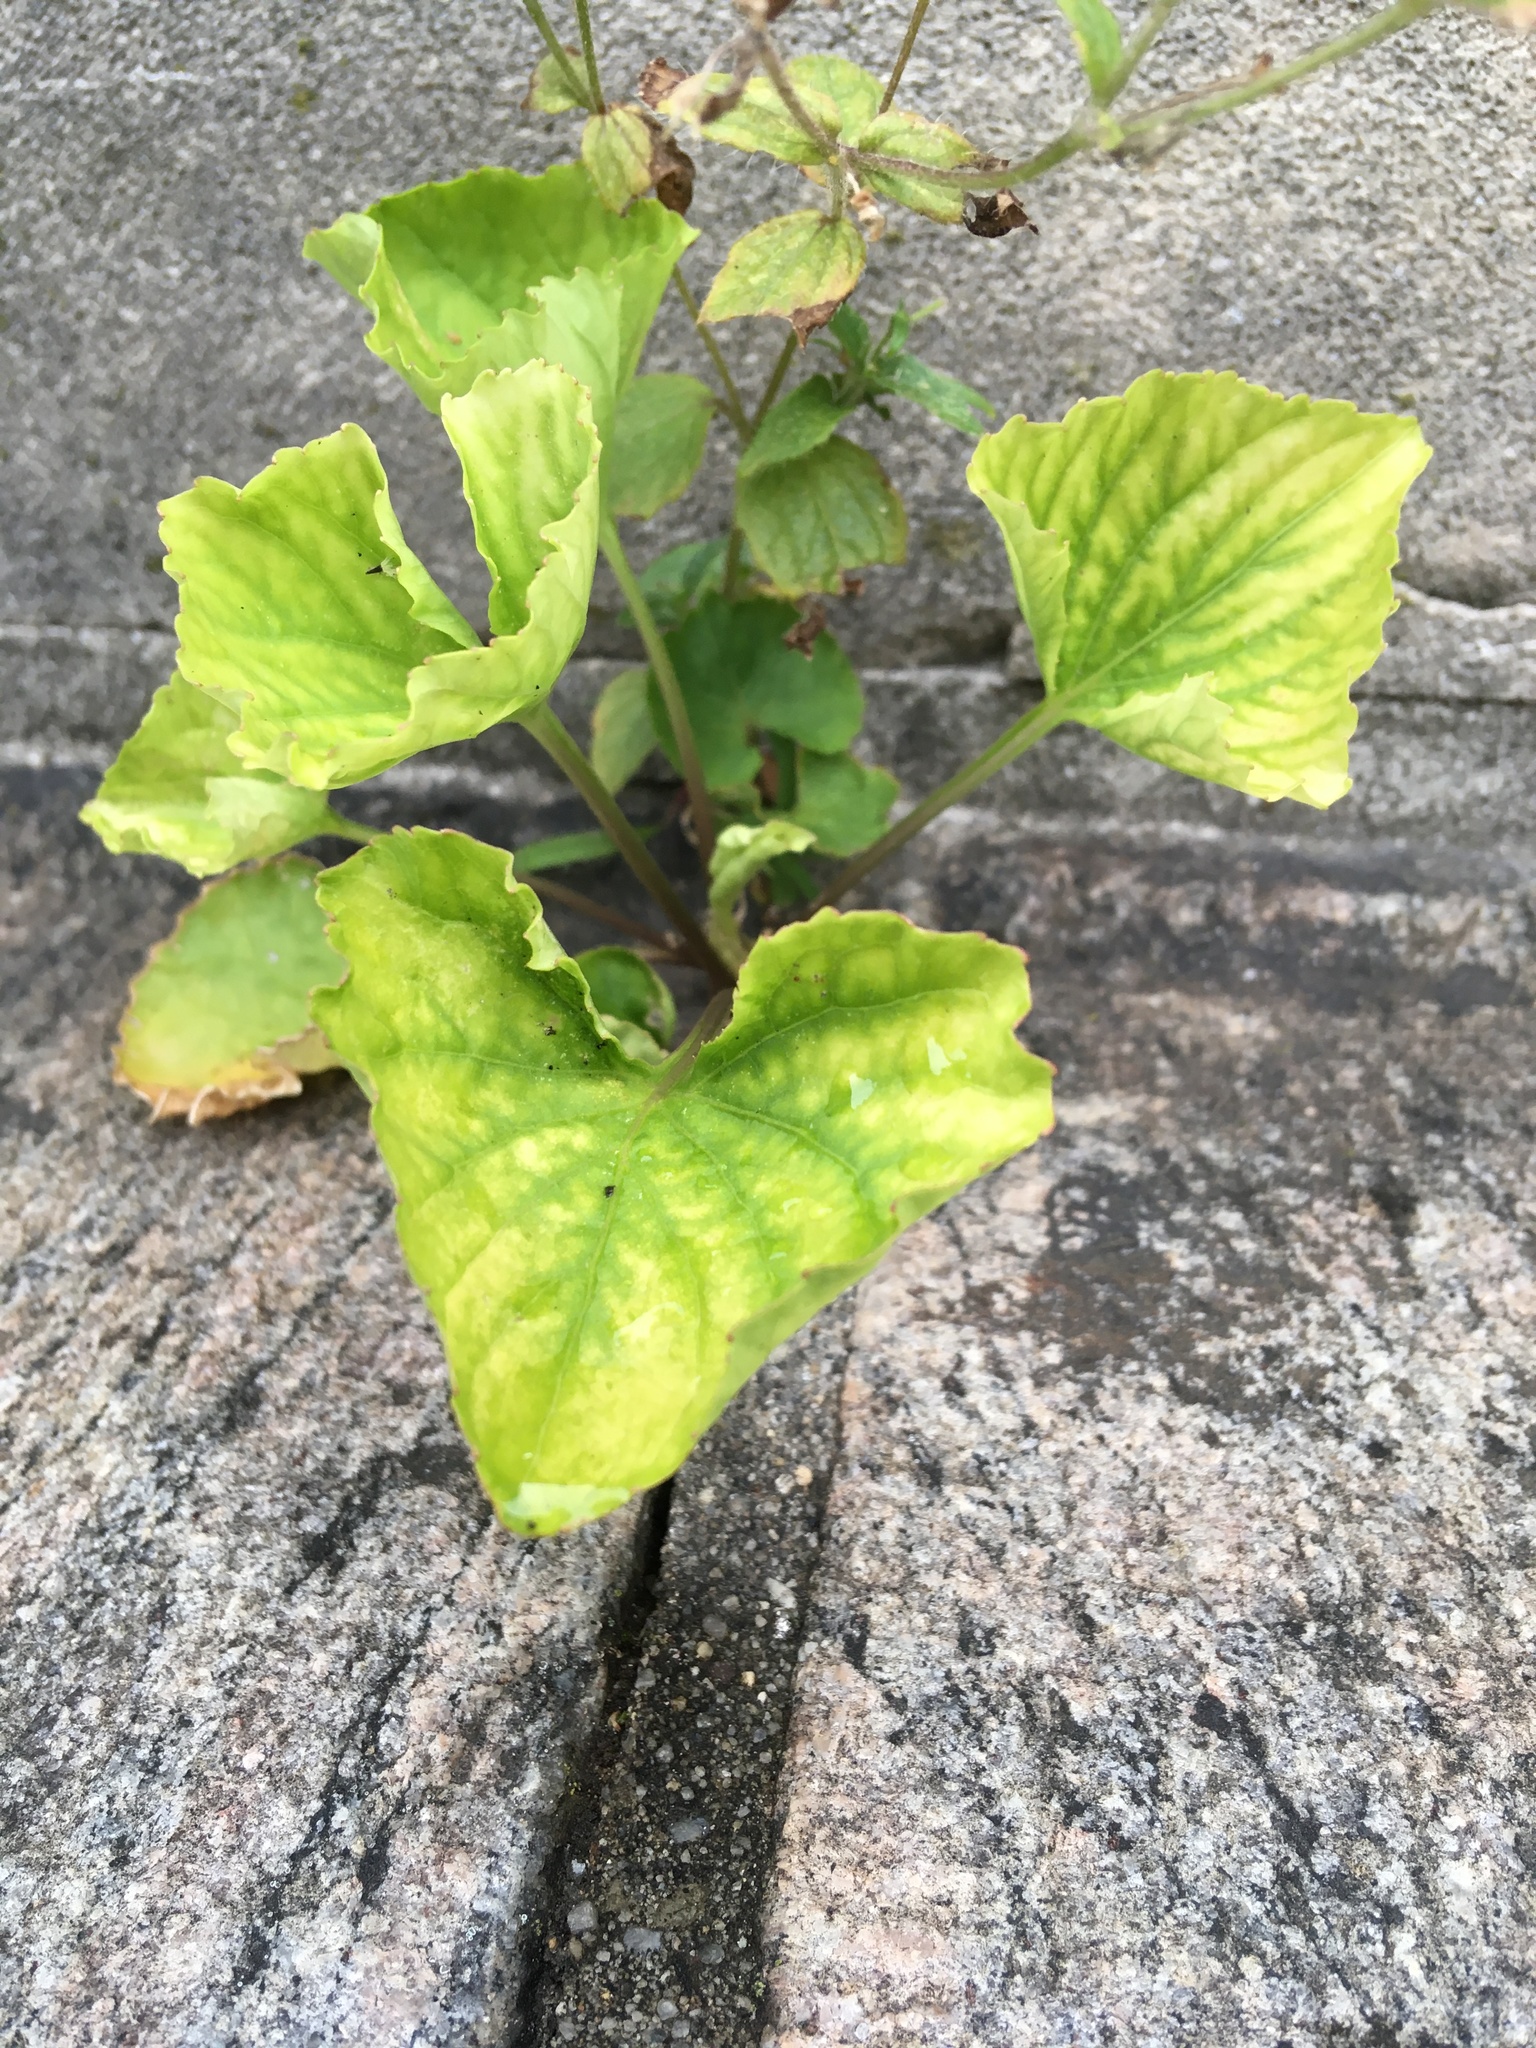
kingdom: Plantae
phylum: Tracheophyta
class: Magnoliopsida
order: Malpighiales
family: Violaceae
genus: Viola
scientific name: Viola sororia
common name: Dooryard violet
